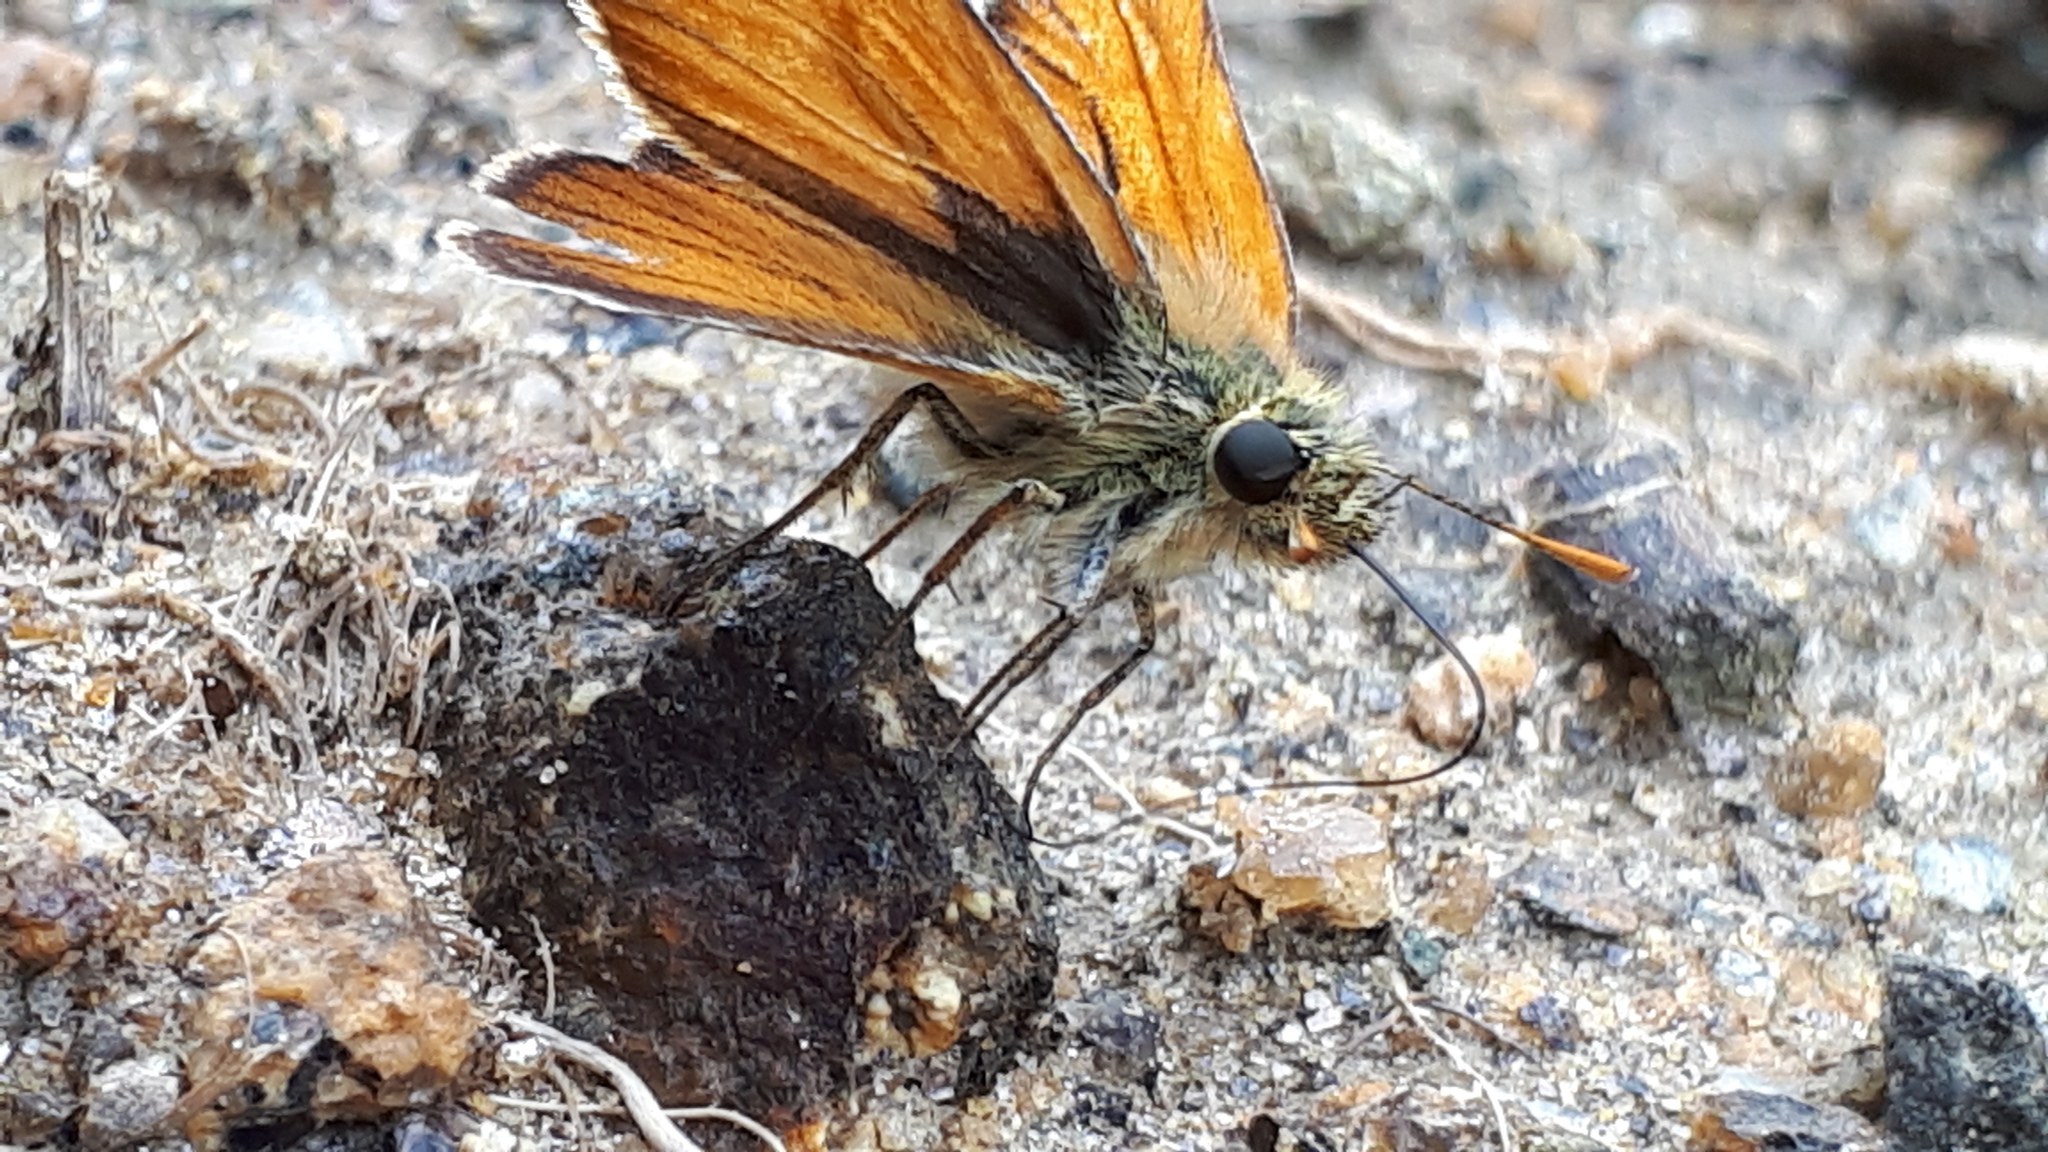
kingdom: Animalia
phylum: Arthropoda
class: Insecta
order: Lepidoptera
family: Hesperiidae
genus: Thymelicus
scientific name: Thymelicus sylvestris
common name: Small skipper
